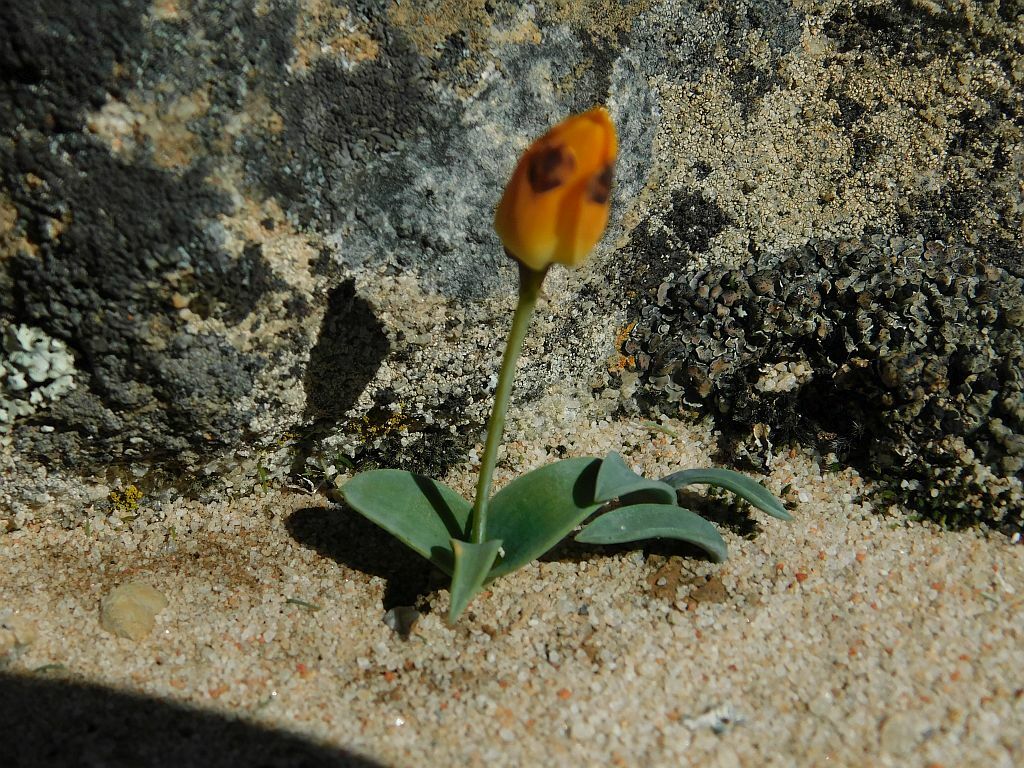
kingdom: Plantae
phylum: Tracheophyta
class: Liliopsida
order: Asparagales
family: Asparagaceae
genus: Ornithogalum
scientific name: Ornithogalum maculatum
